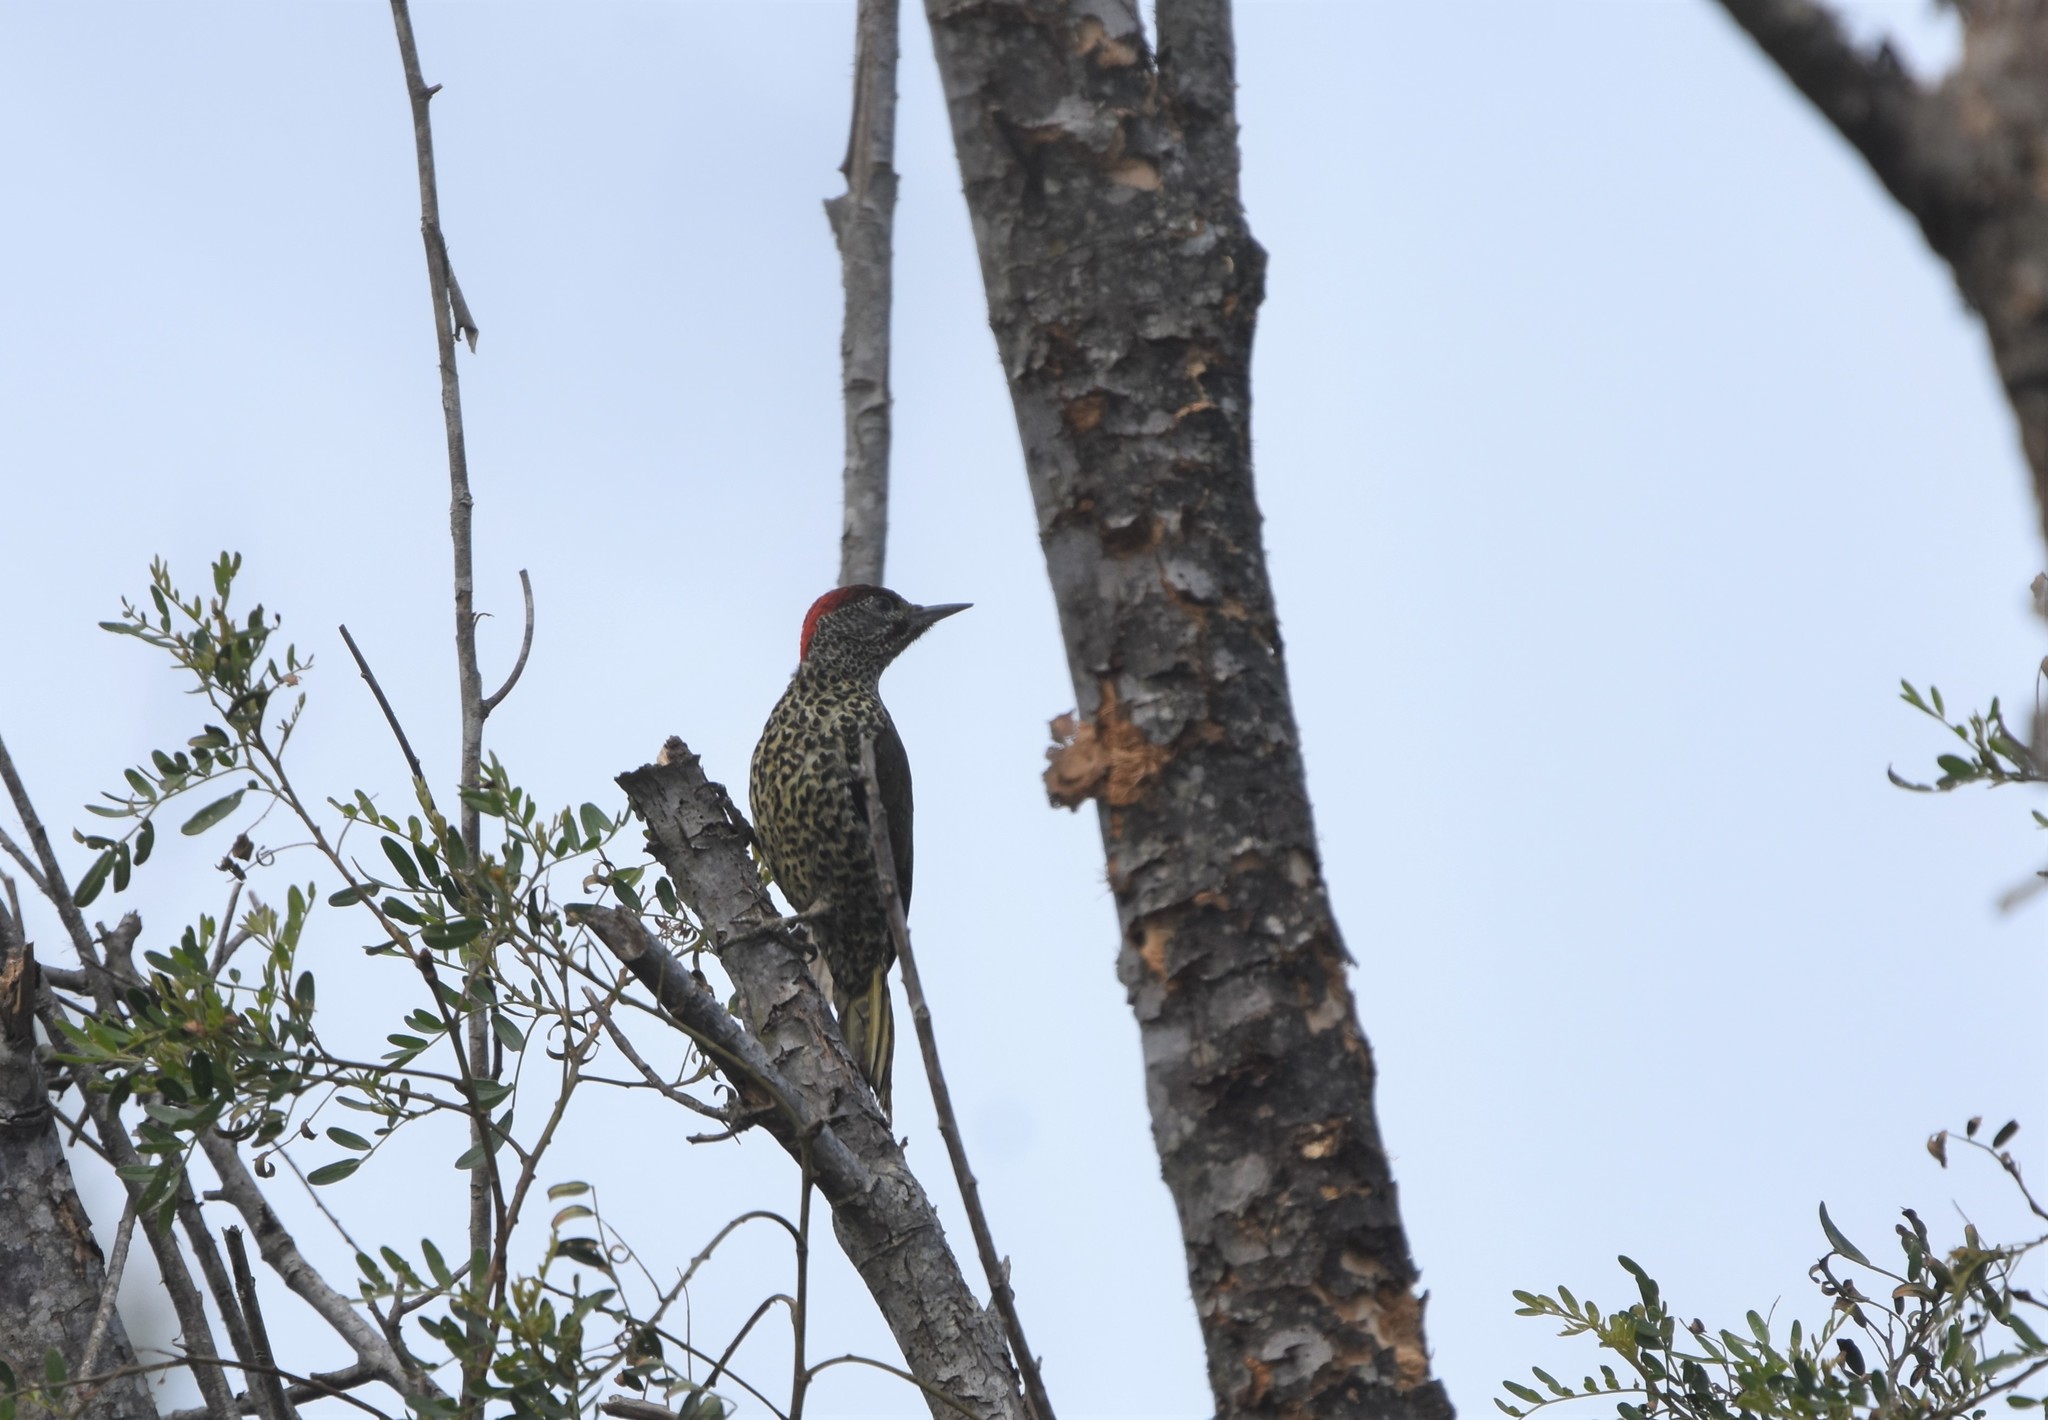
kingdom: Animalia
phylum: Chordata
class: Aves
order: Piciformes
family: Picidae
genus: Campethera
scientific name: Campethera notata
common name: Knysna woodpecker
